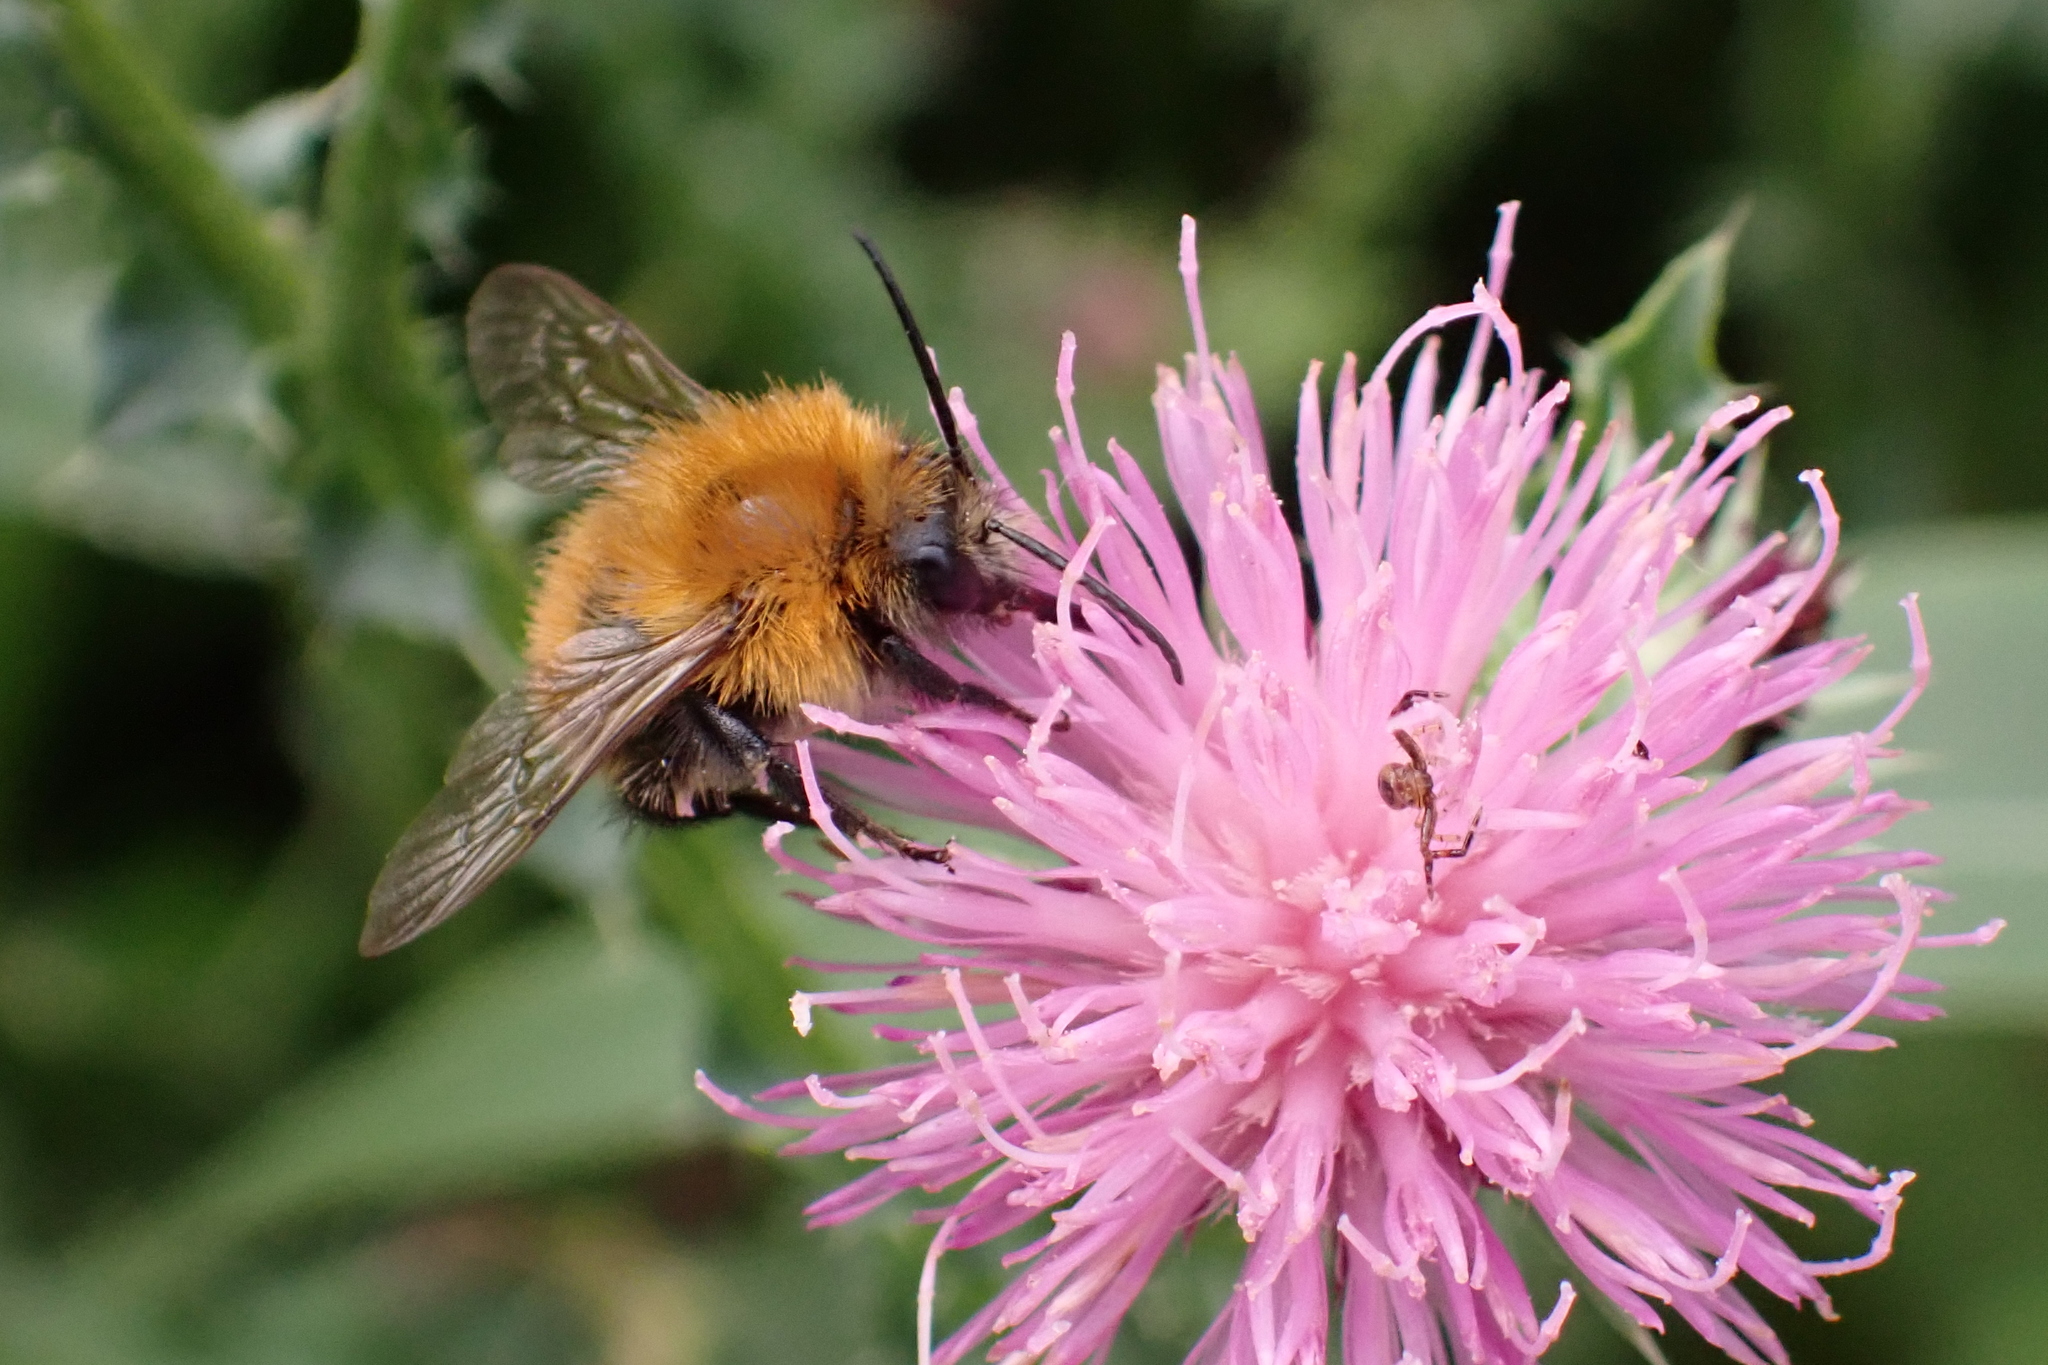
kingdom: Animalia
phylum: Arthropoda
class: Insecta
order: Hymenoptera
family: Apidae
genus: Bombus
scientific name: Bombus pascuorum
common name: Common carder bee
